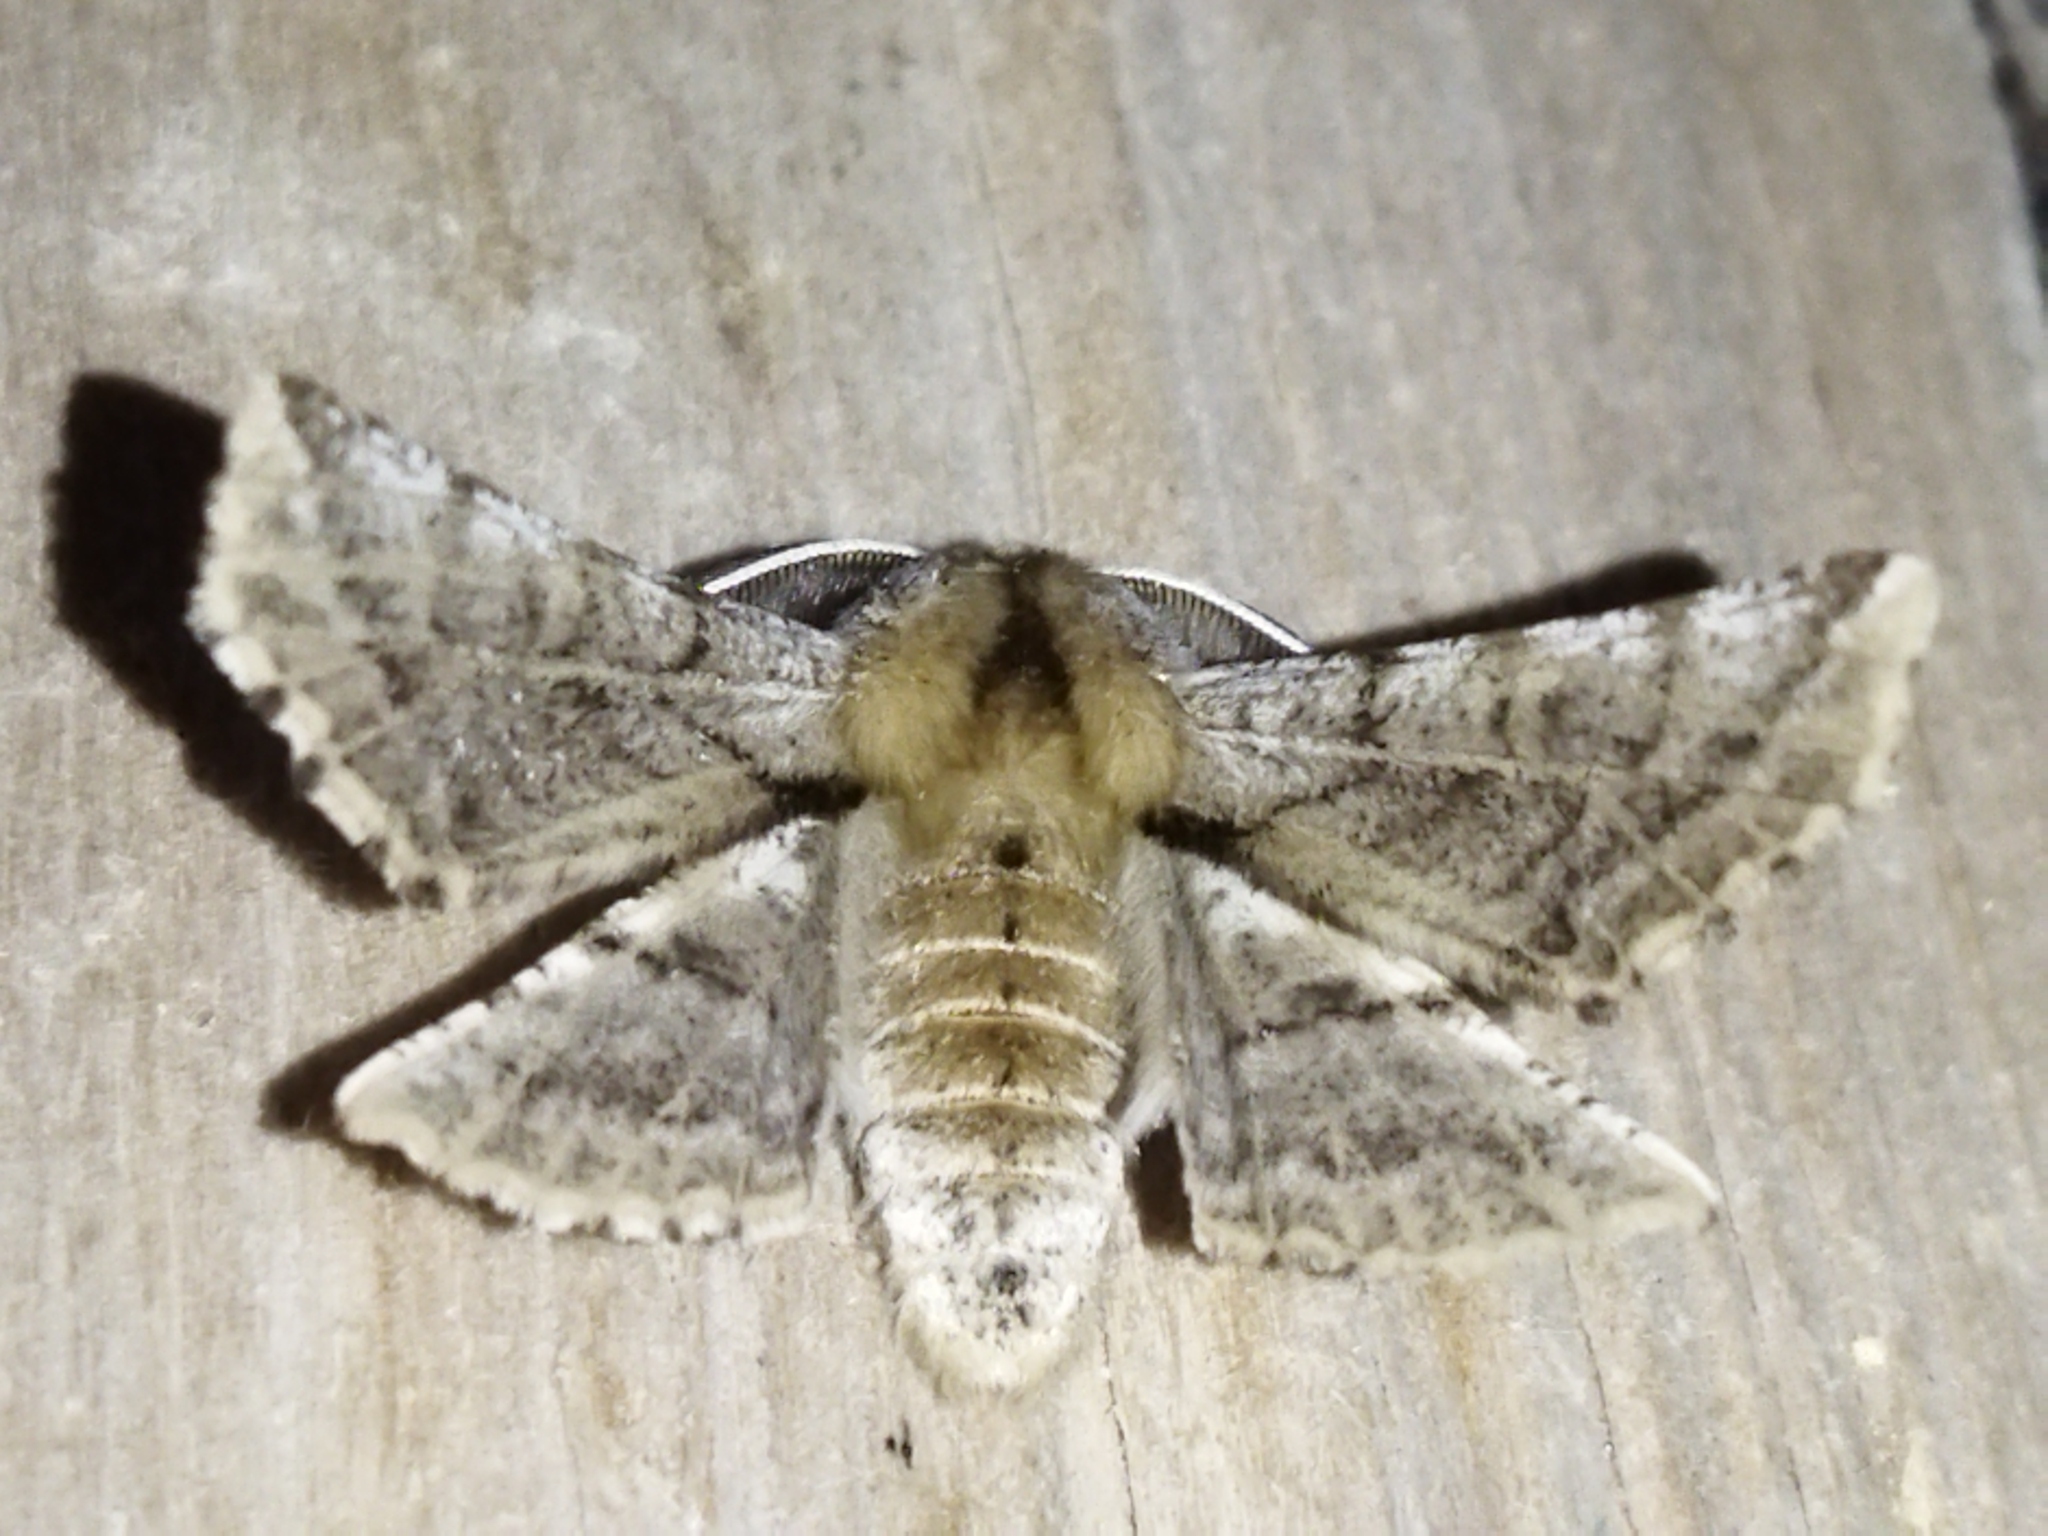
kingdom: Animalia
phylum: Arthropoda
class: Insecta
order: Lepidoptera
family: Geometridae
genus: Apochima
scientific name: Apochima flabellaria
